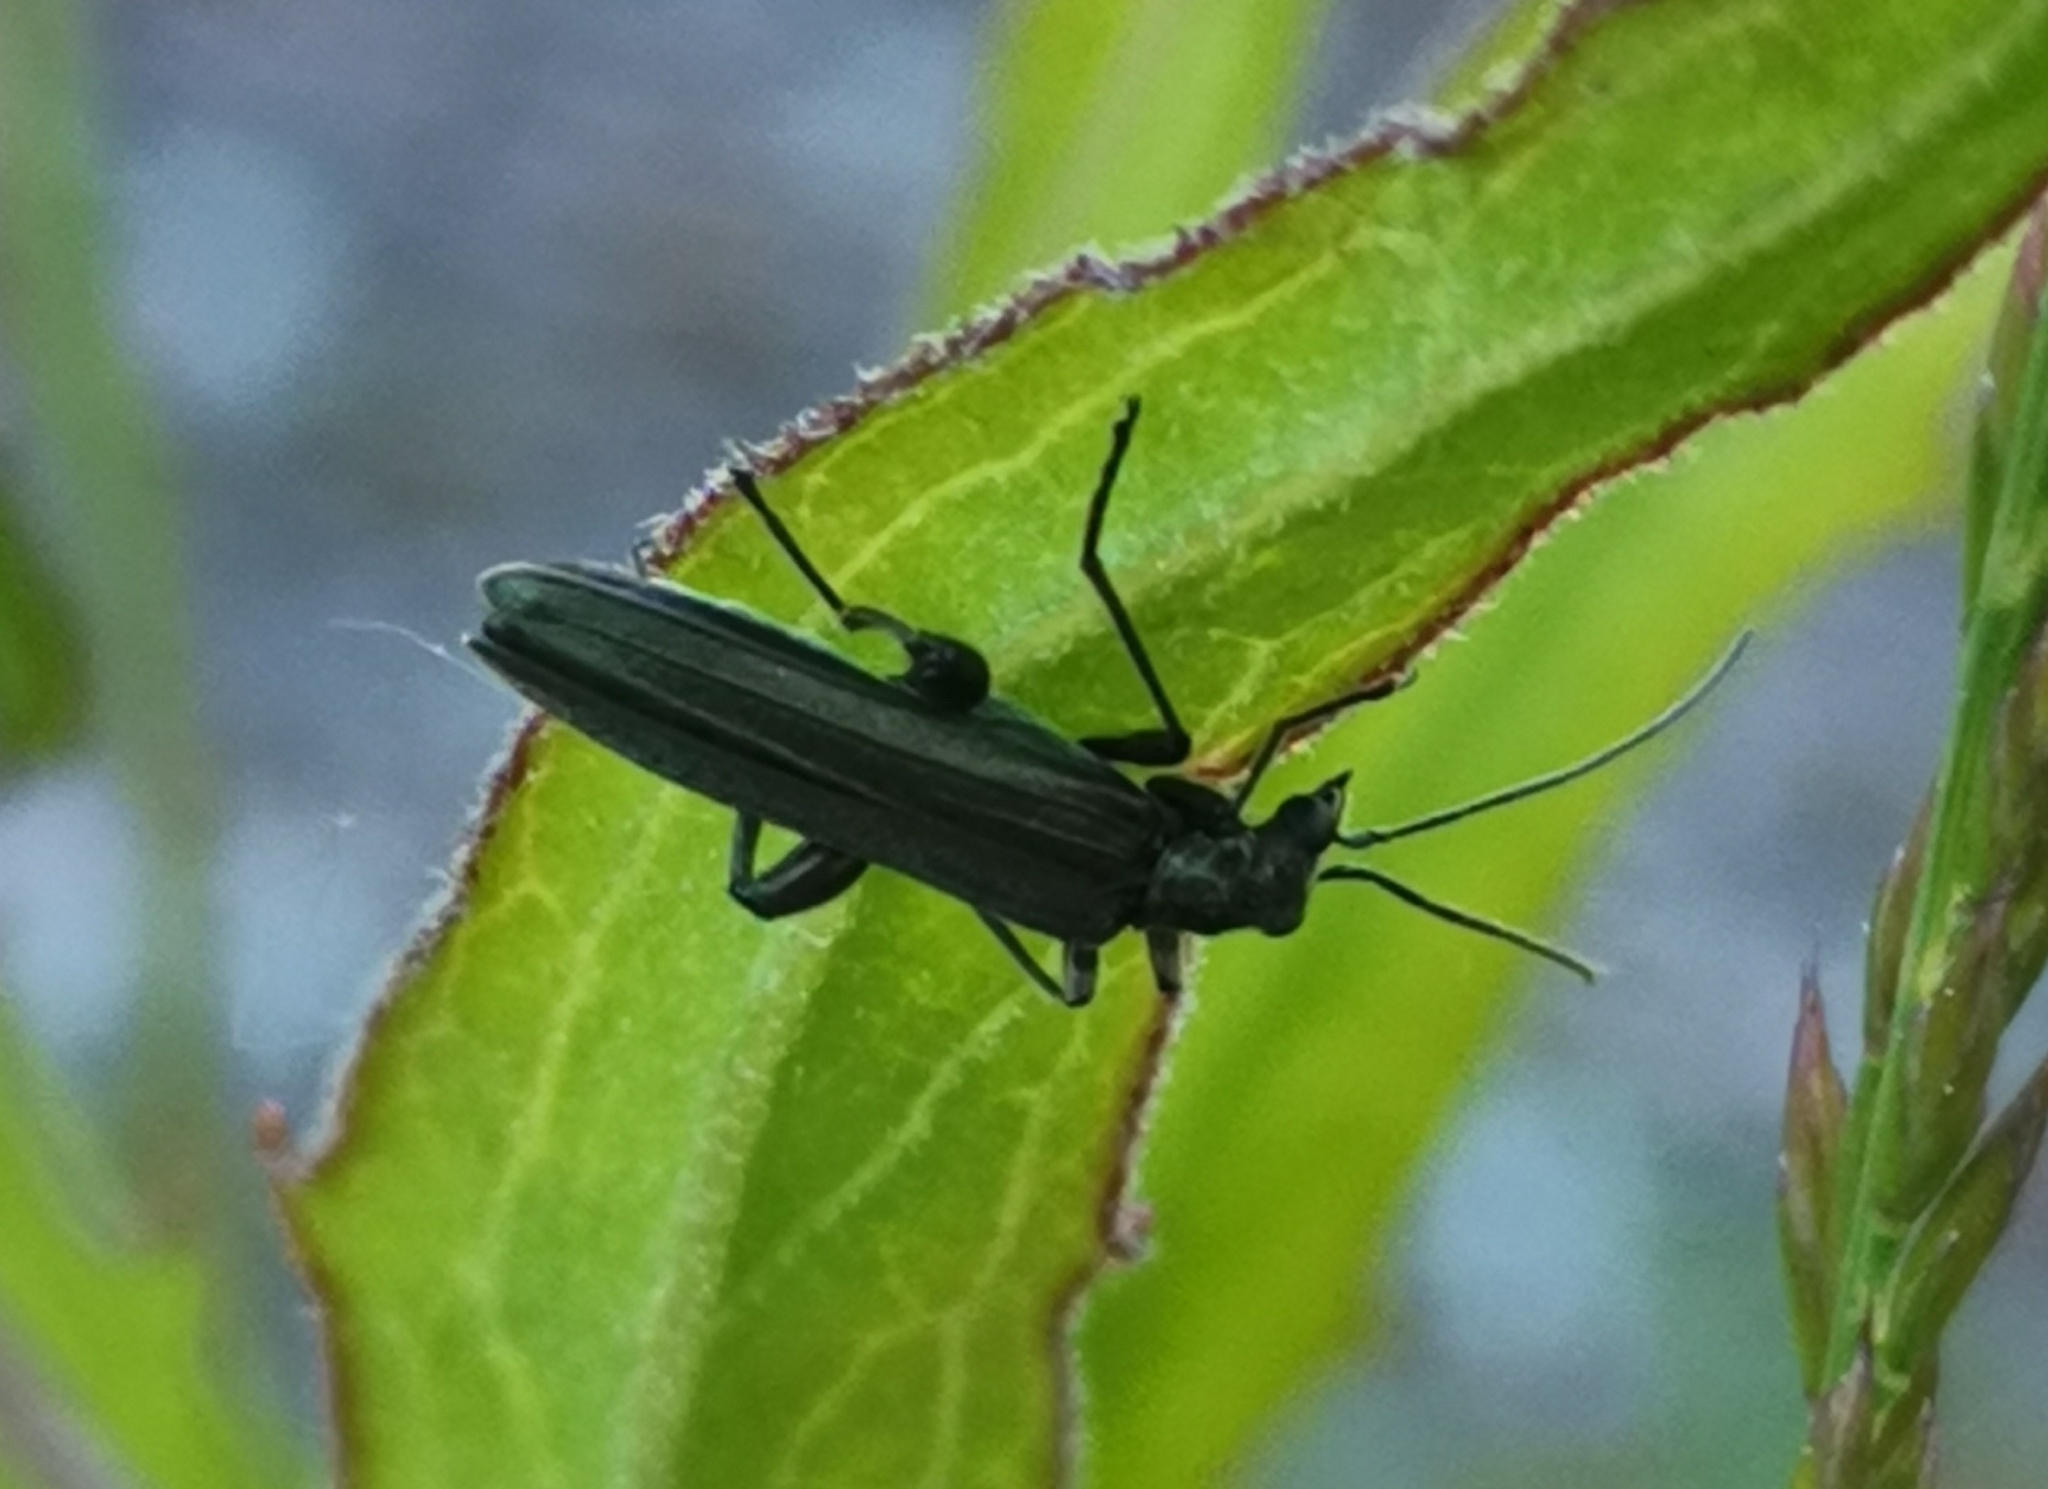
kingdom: Animalia
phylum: Arthropoda
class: Insecta
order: Coleoptera
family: Oedemeridae
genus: Oedemera
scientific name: Oedemera virescens
